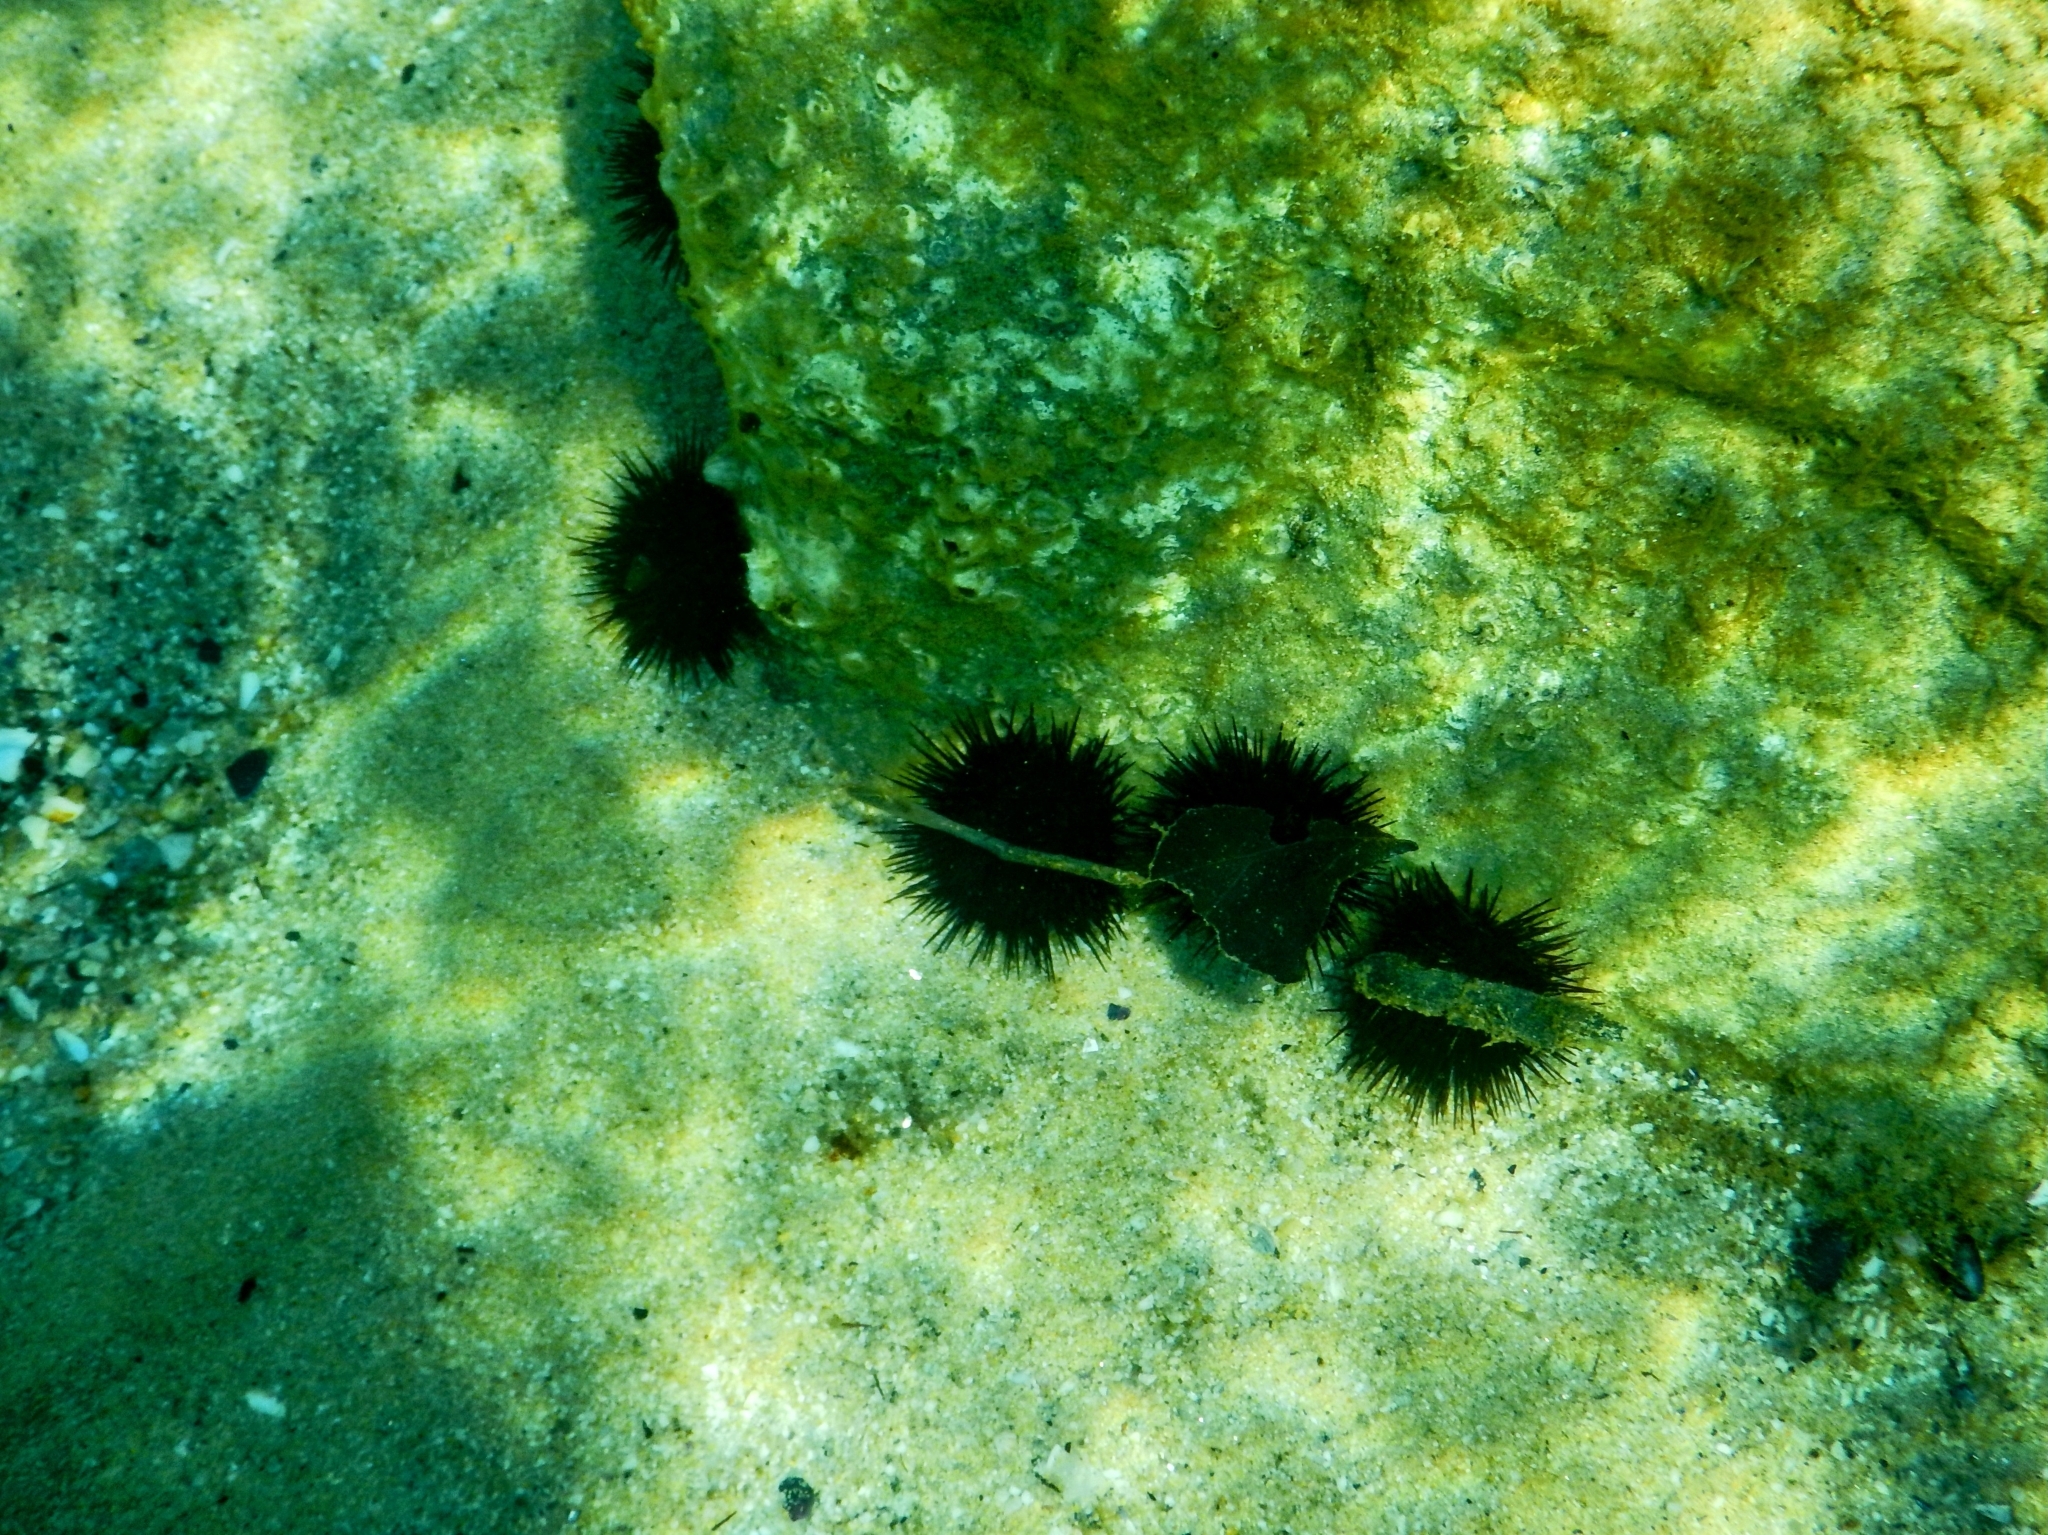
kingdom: Animalia
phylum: Echinodermata
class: Echinoidea
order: Arbacioida
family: Arbaciidae
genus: Arbacia
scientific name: Arbacia lixula
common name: Black sea urchin
